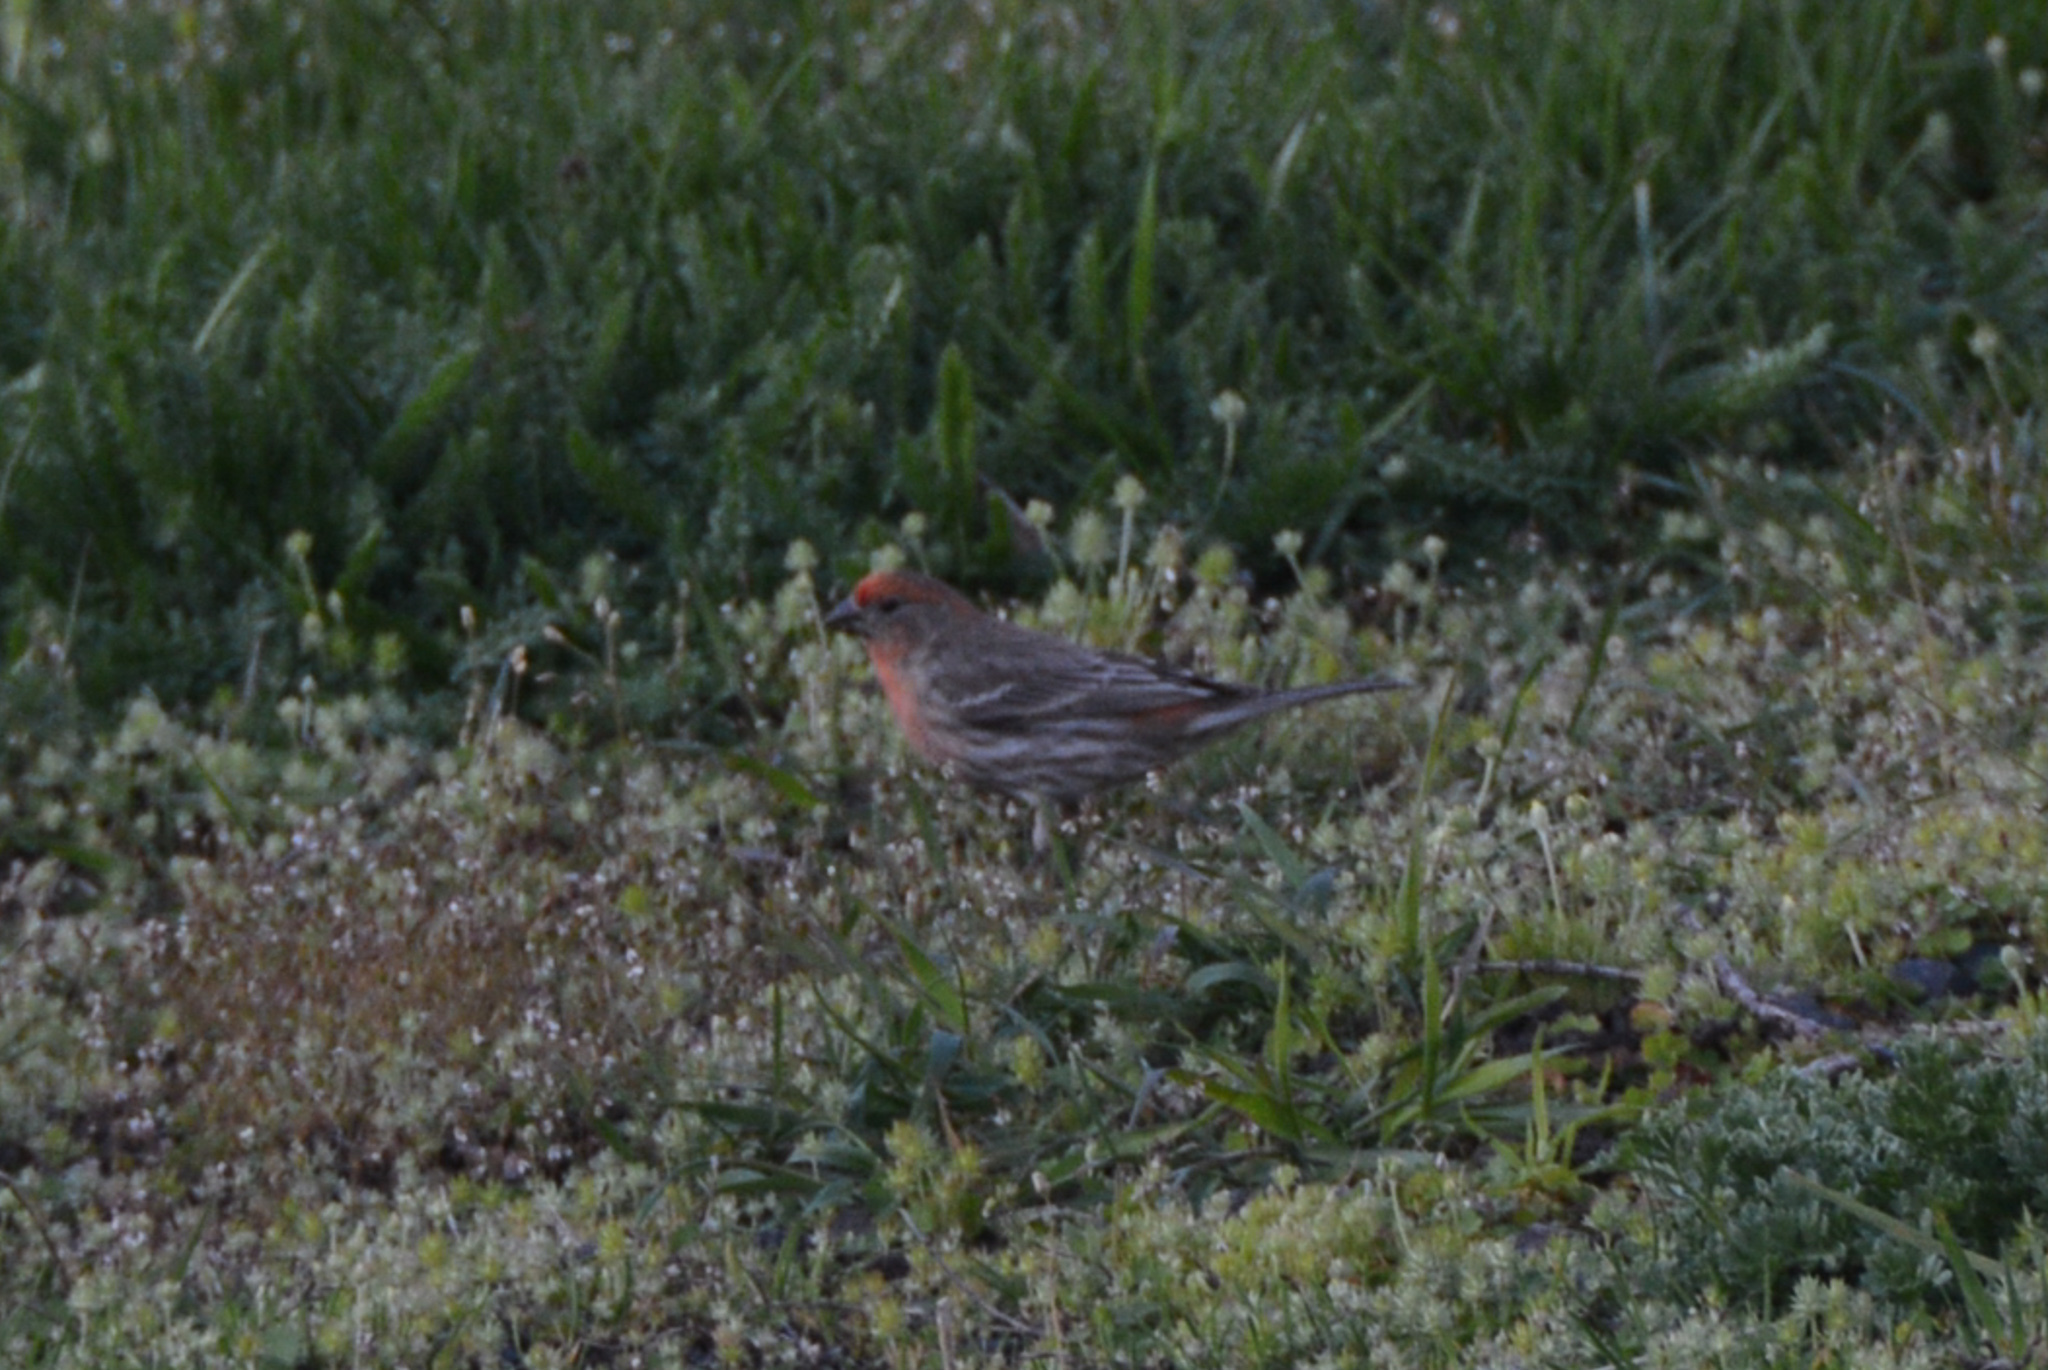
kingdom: Animalia
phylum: Chordata
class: Aves
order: Passeriformes
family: Fringillidae
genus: Haemorhous
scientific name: Haemorhous mexicanus
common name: House finch
